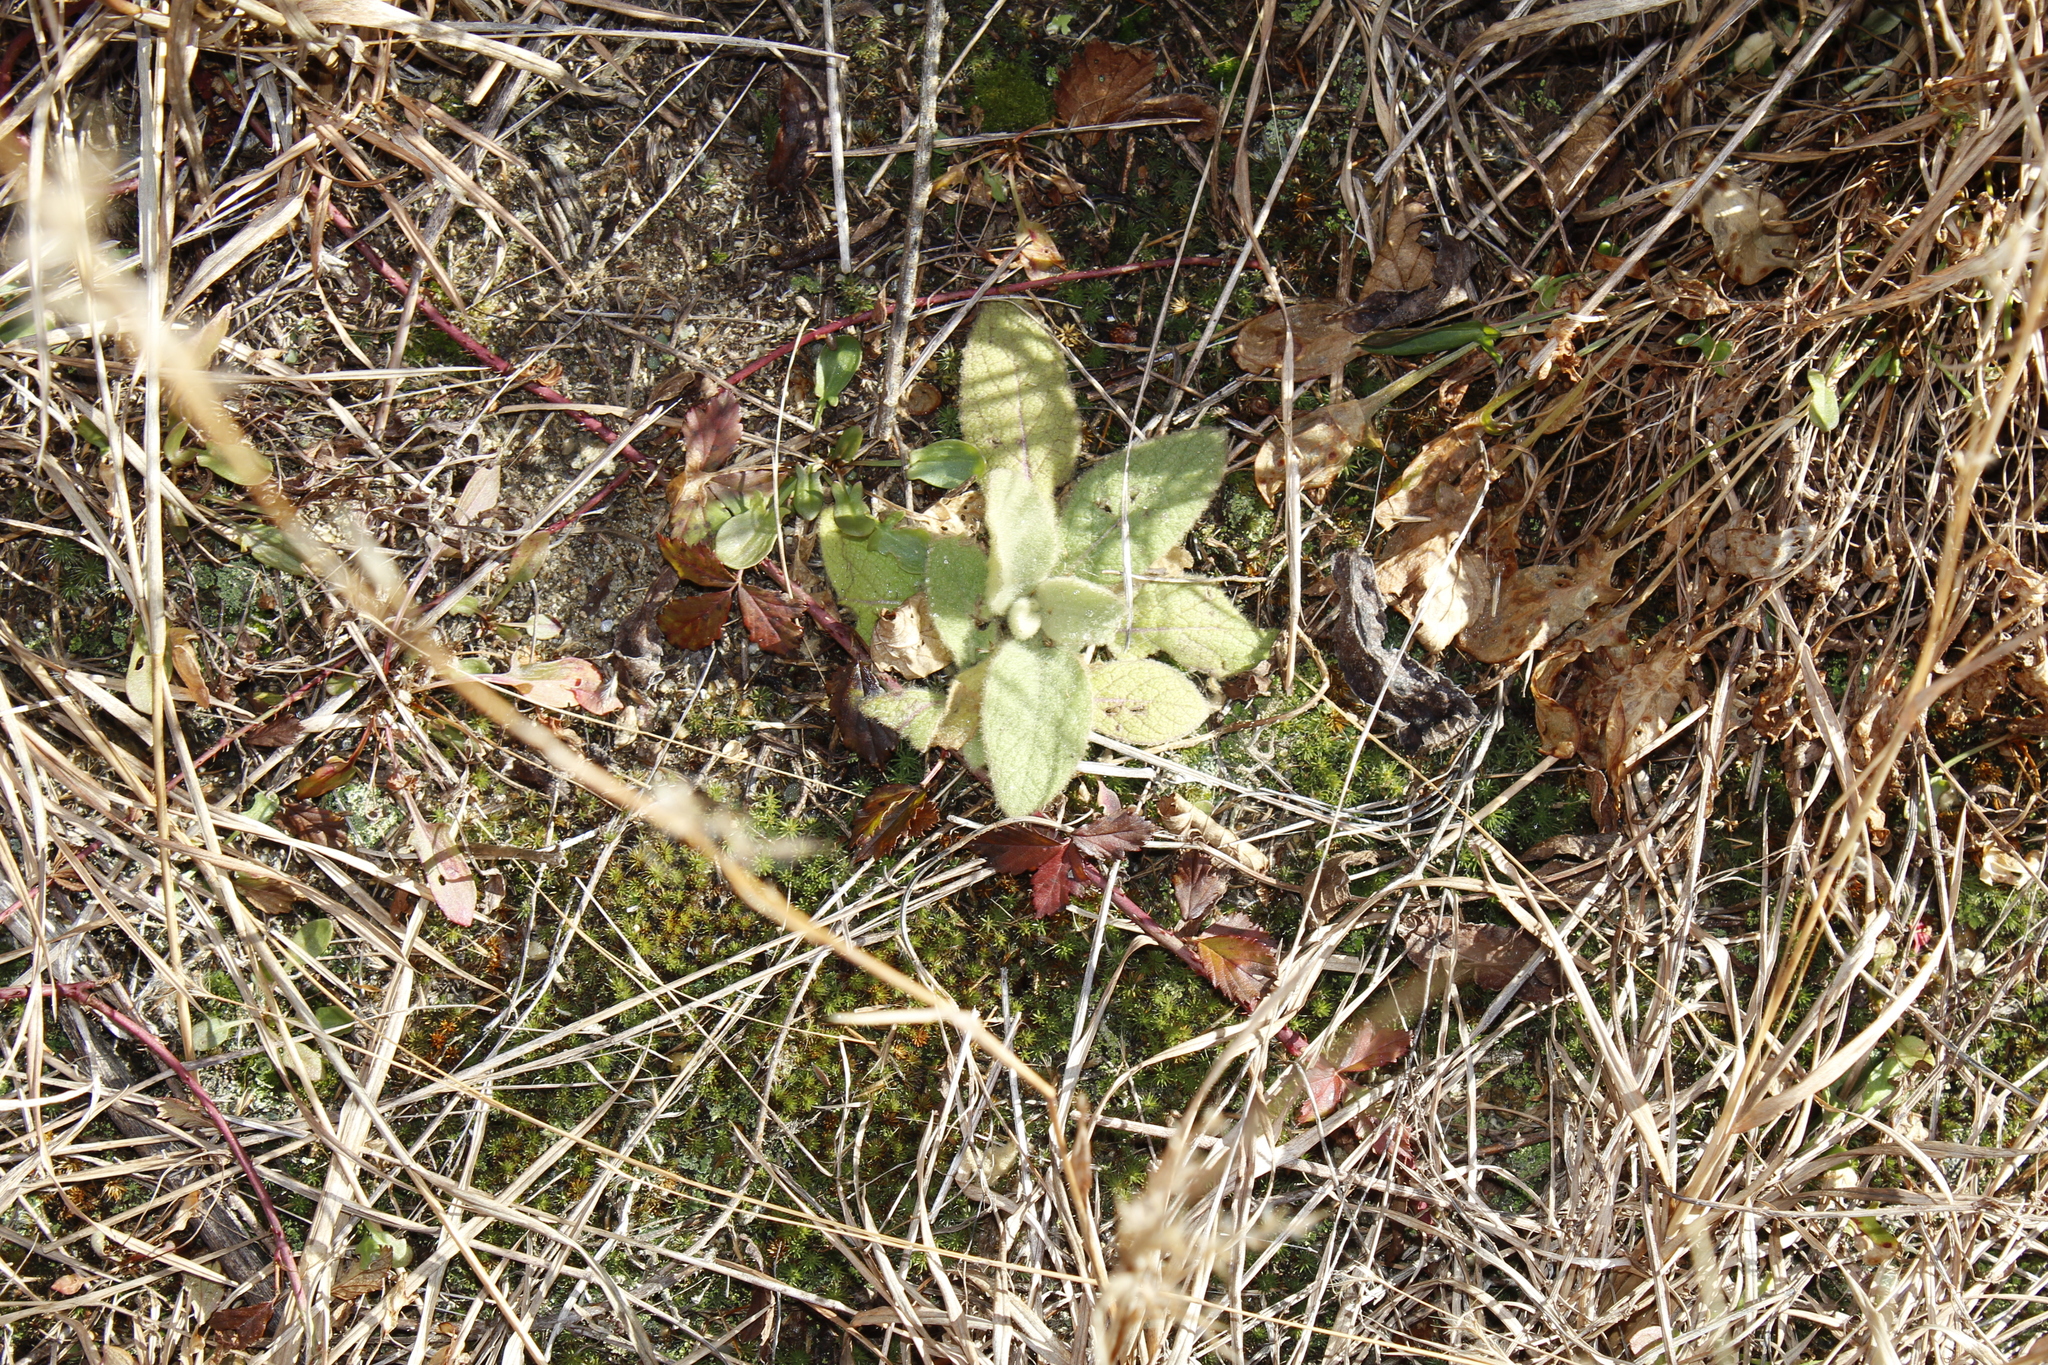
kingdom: Plantae
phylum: Tracheophyta
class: Magnoliopsida
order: Lamiales
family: Scrophulariaceae
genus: Verbascum
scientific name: Verbascum thapsus
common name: Common mullein
